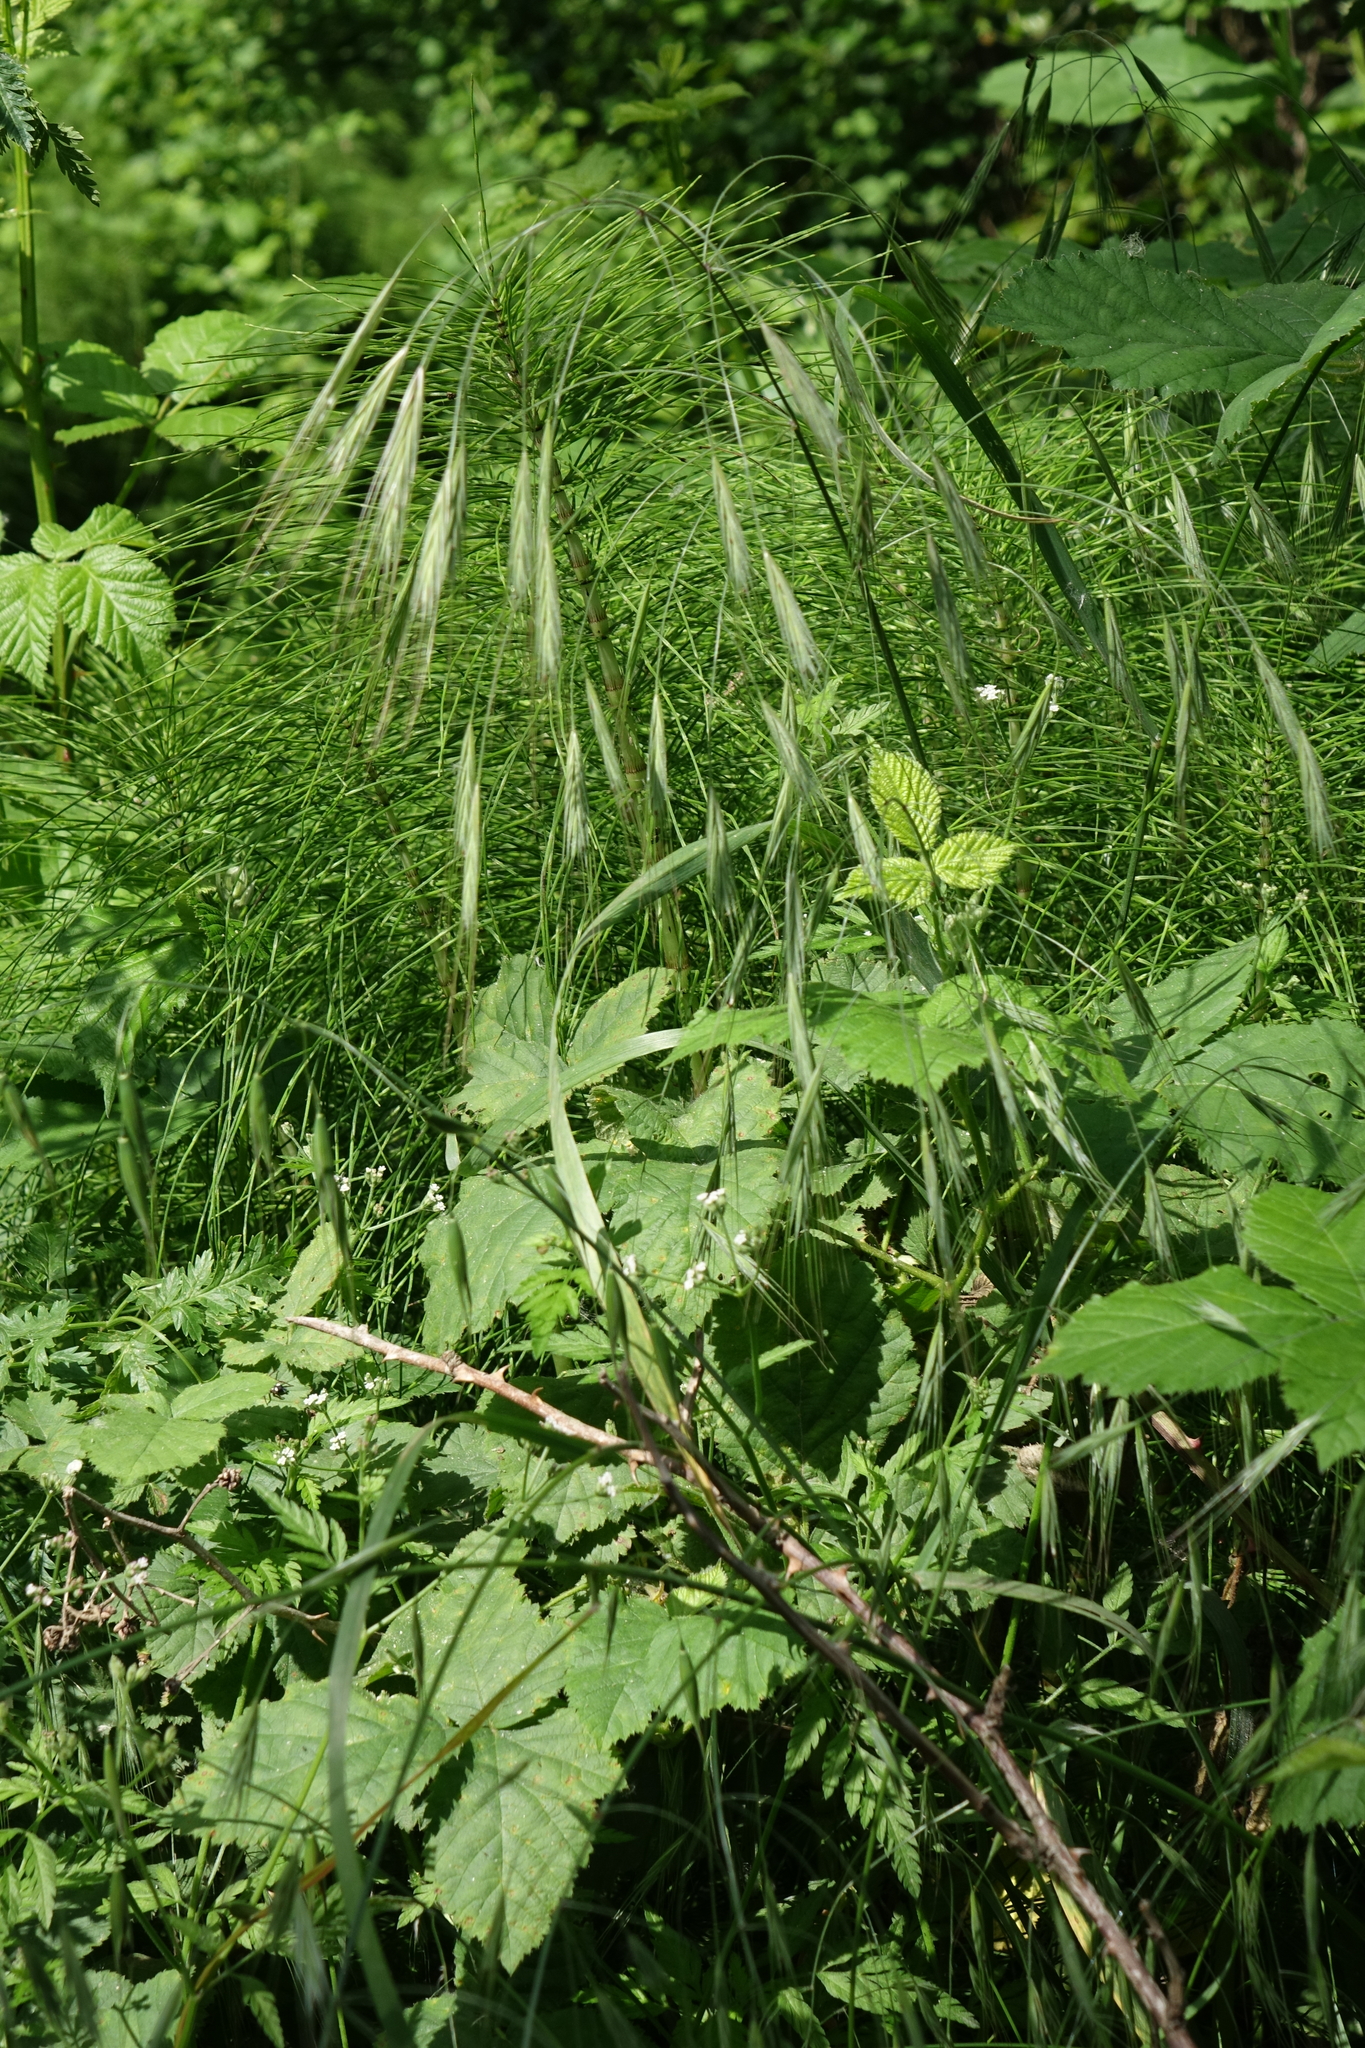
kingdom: Plantae
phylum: Tracheophyta
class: Polypodiopsida
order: Equisetales
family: Equisetaceae
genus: Equisetum
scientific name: Equisetum telmateia
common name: Great horsetail
